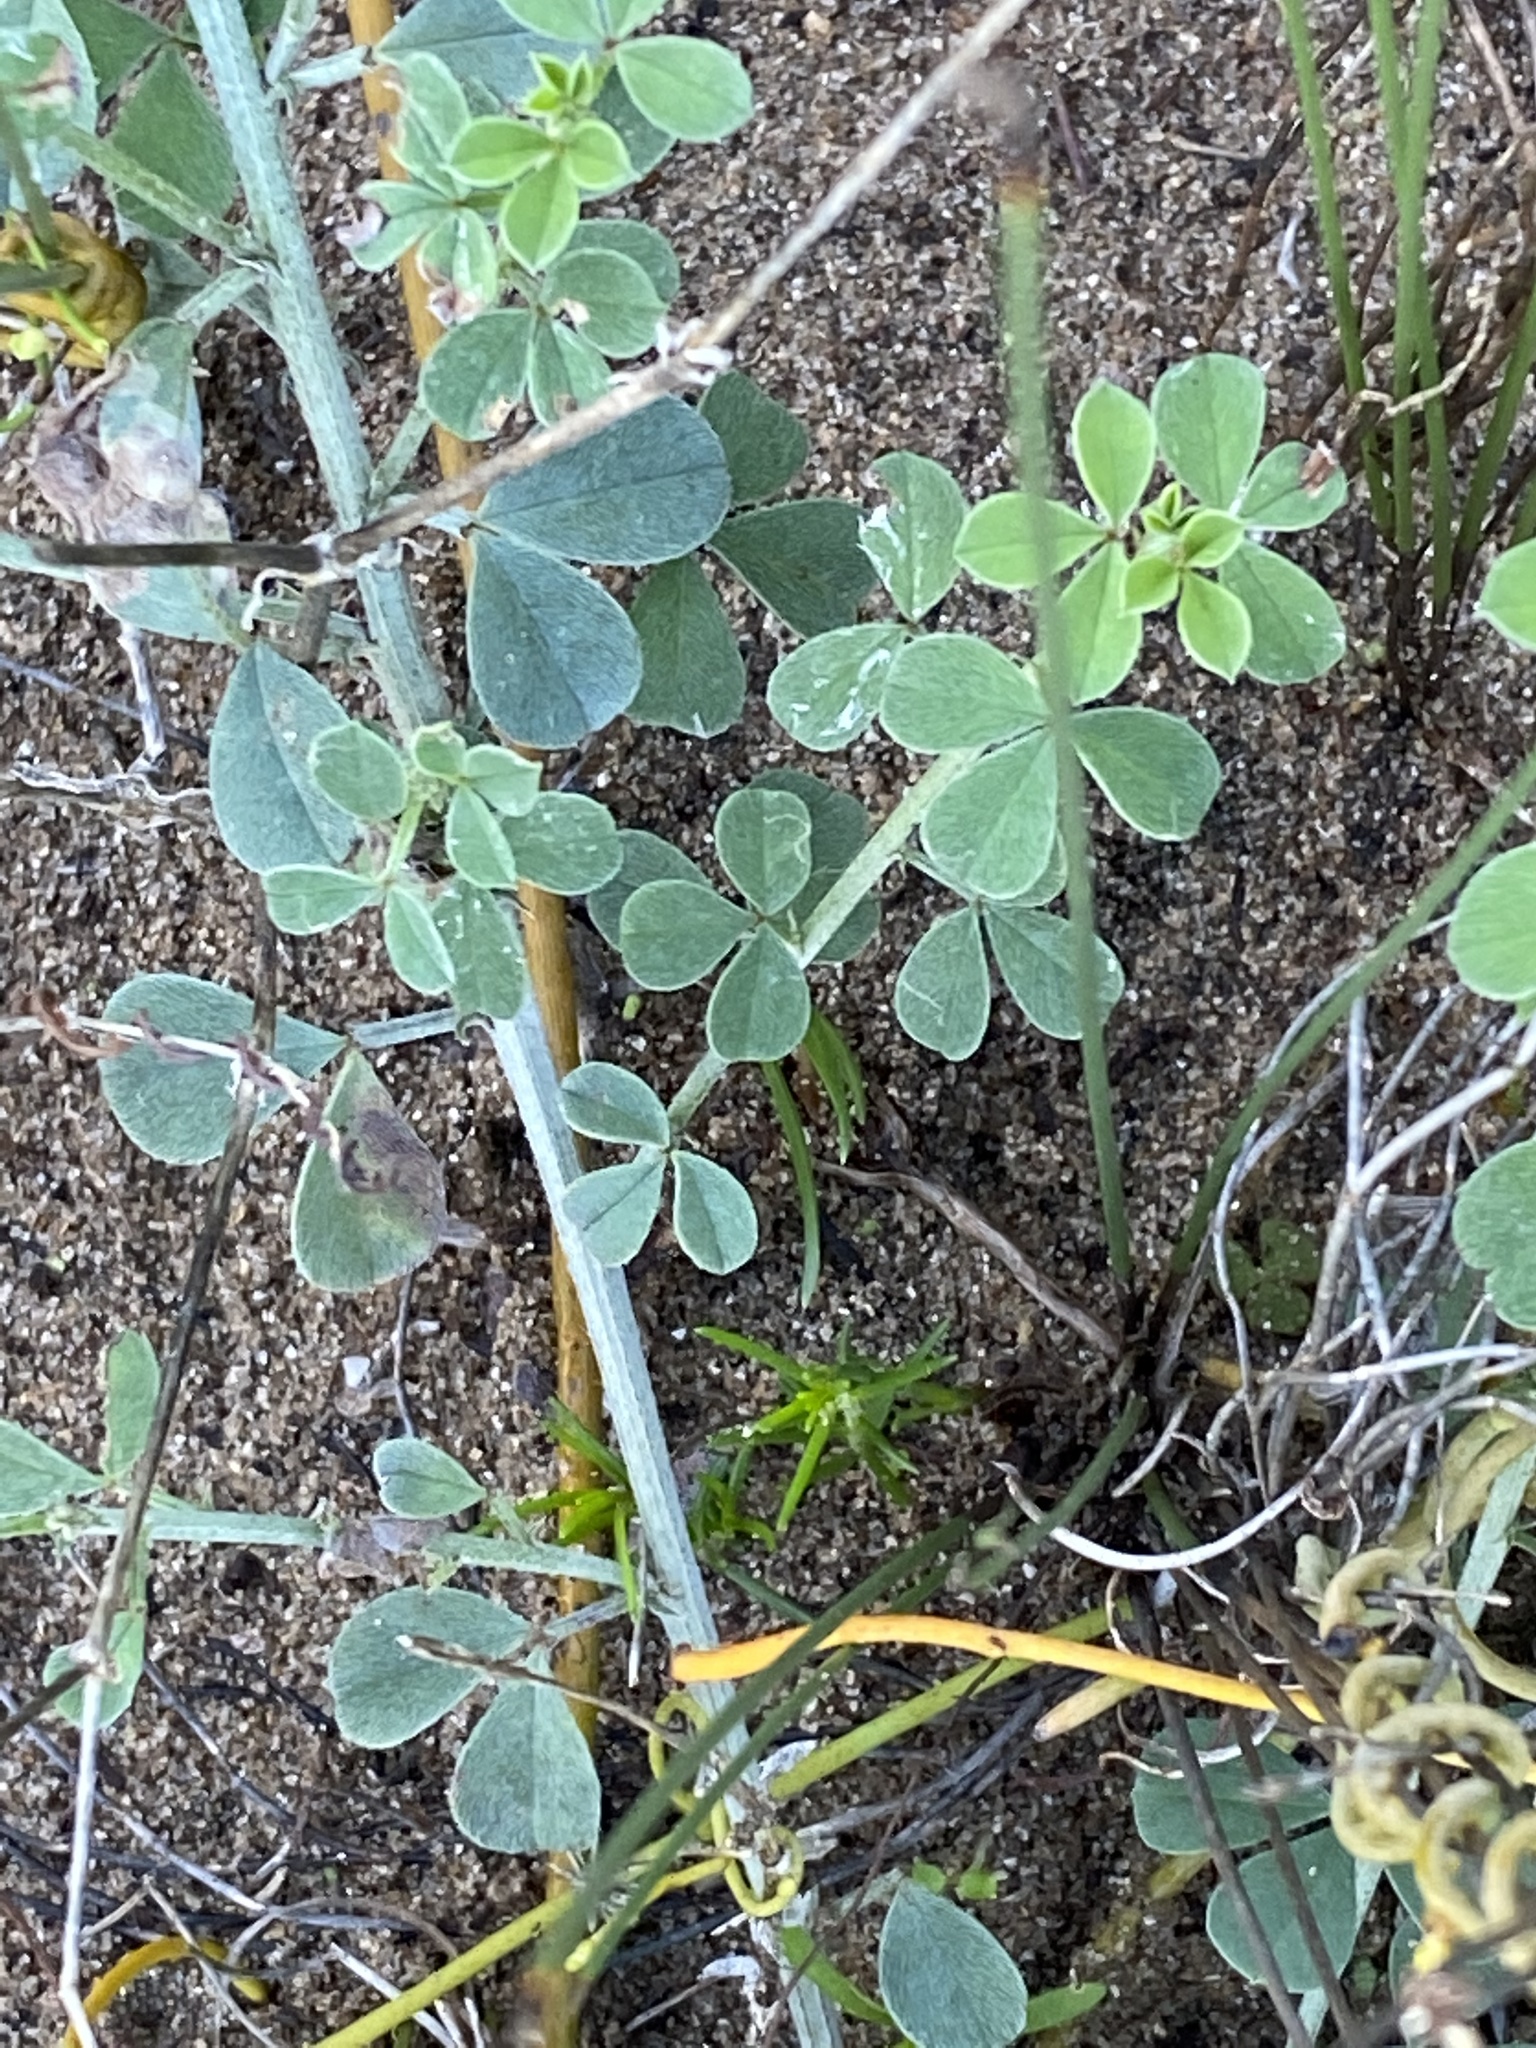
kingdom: Plantae
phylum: Tracheophyta
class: Magnoliopsida
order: Fabales
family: Fabaceae
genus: Indigofera
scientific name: Indigofera candicans
